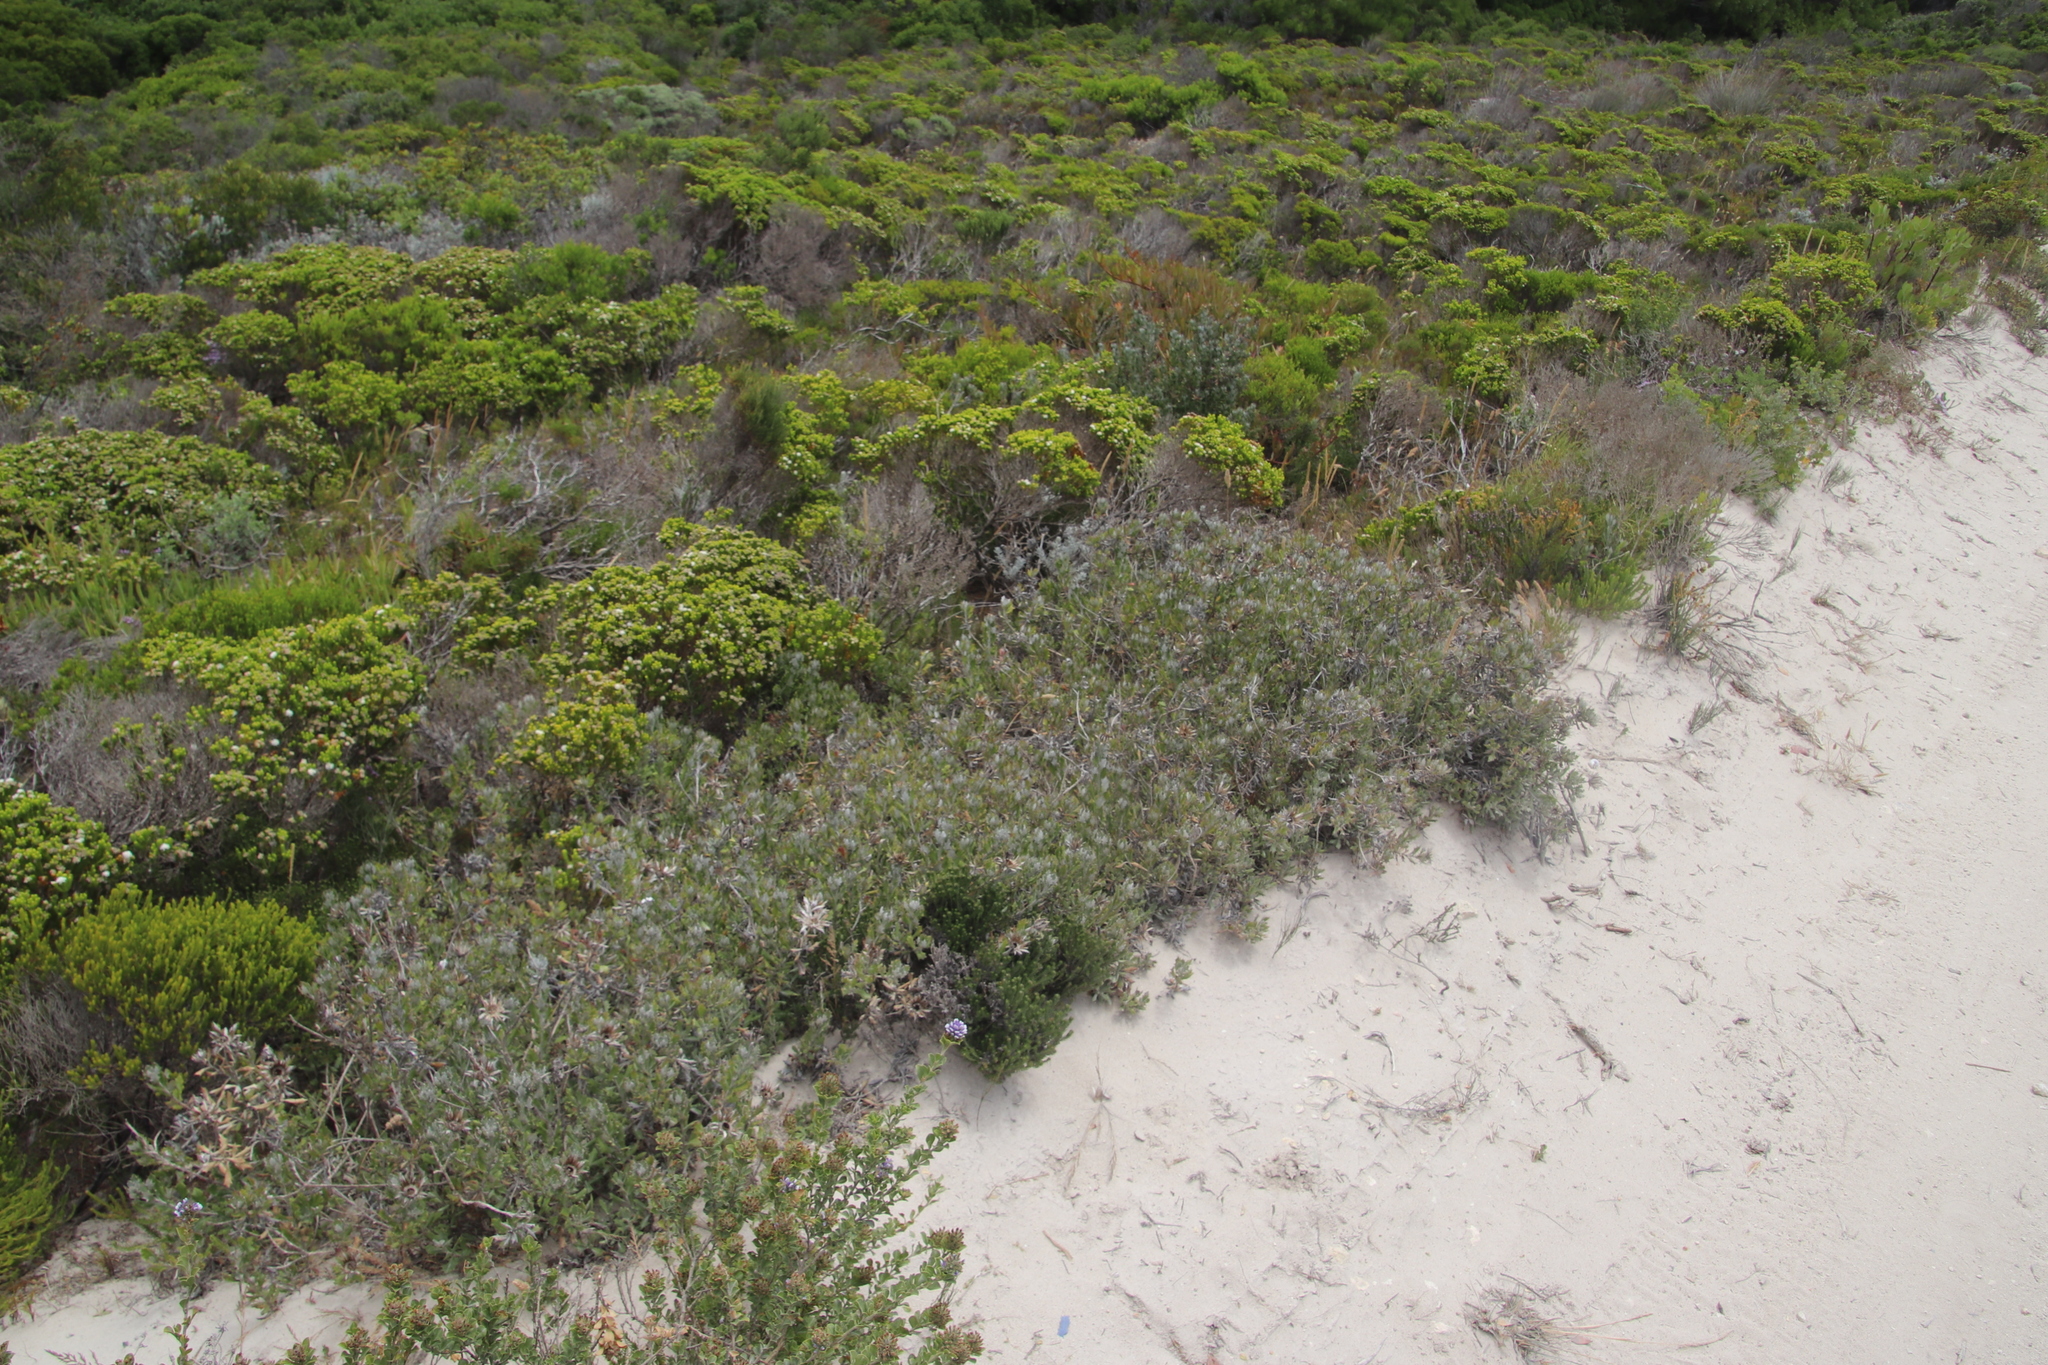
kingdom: Plantae
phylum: Tracheophyta
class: Magnoliopsida
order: Asterales
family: Asteraceae
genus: Berkheya
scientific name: Berkheya coriacea
